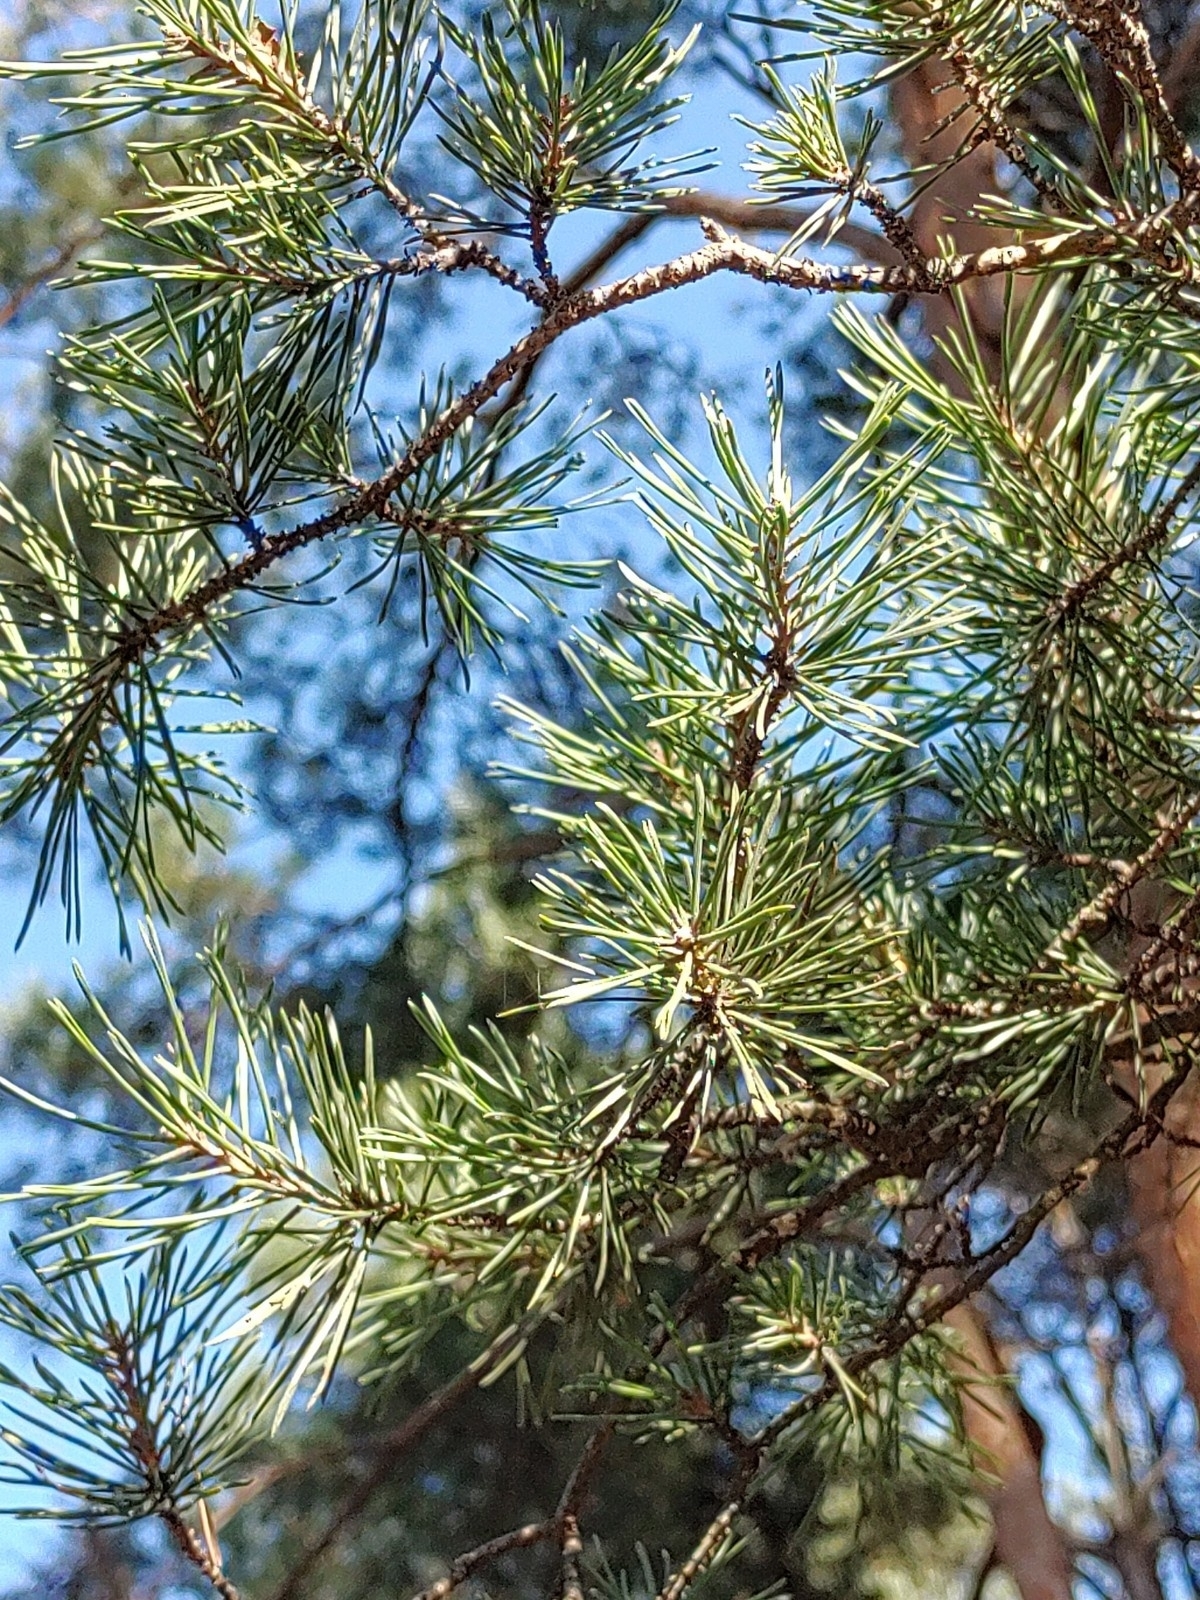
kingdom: Plantae
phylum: Tracheophyta
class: Pinopsida
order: Pinales
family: Pinaceae
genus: Pinus
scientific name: Pinus sylvestris
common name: Scots pine
